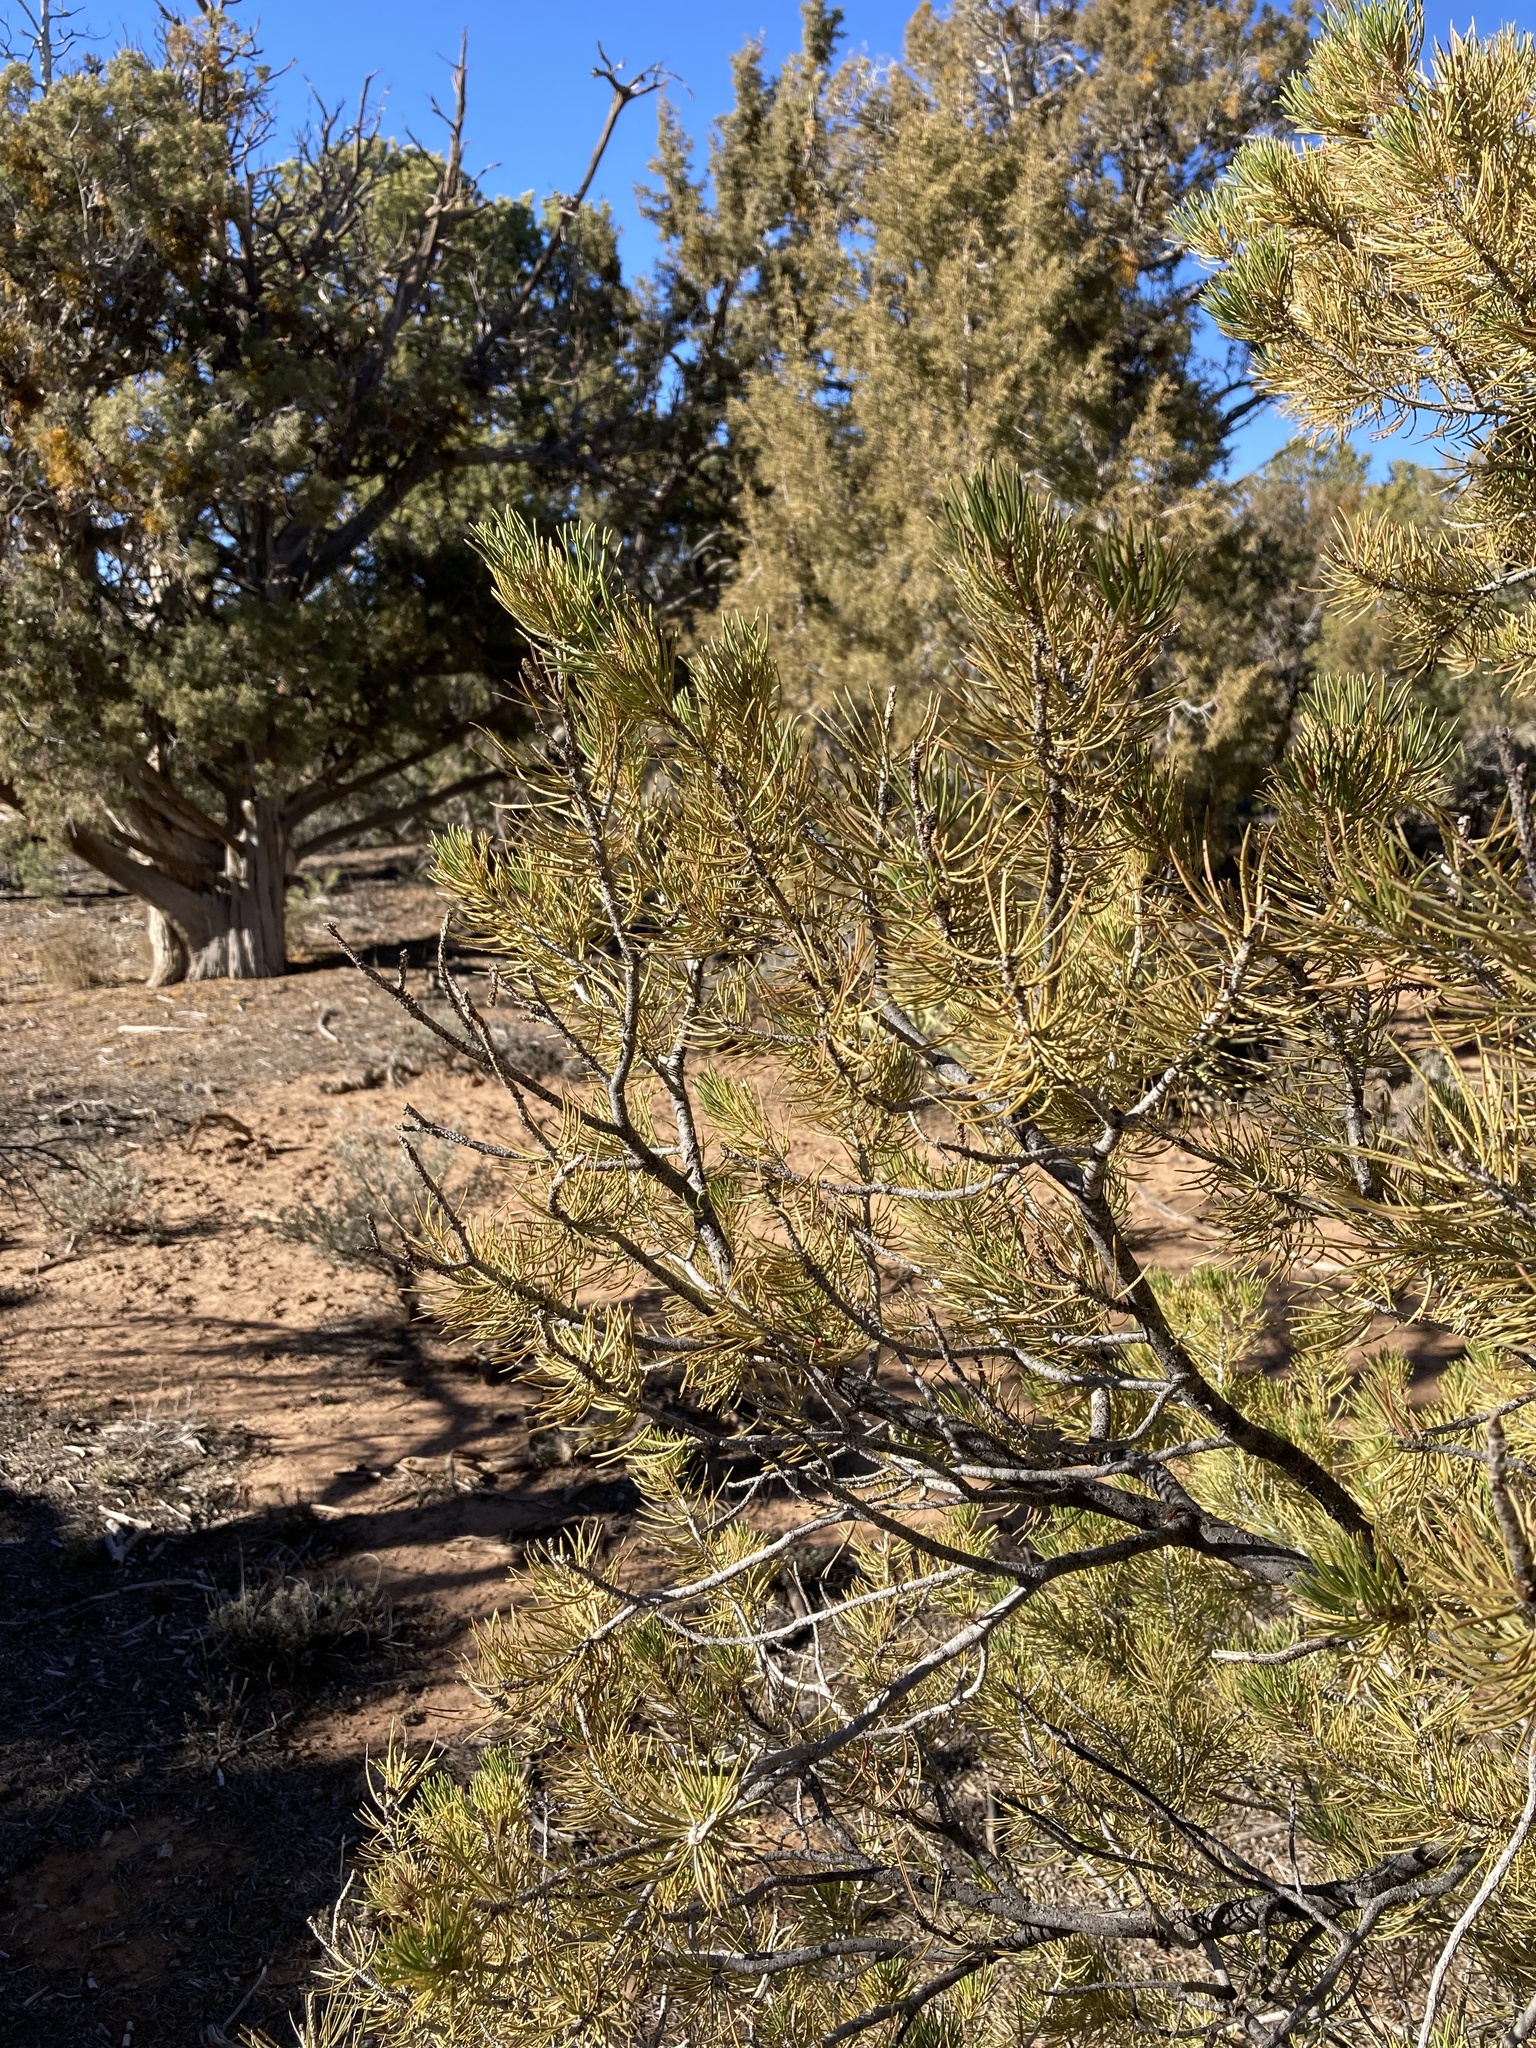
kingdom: Plantae
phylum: Tracheophyta
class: Pinopsida
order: Pinales
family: Pinaceae
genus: Pinus
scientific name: Pinus edulis
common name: Colorado pinyon
